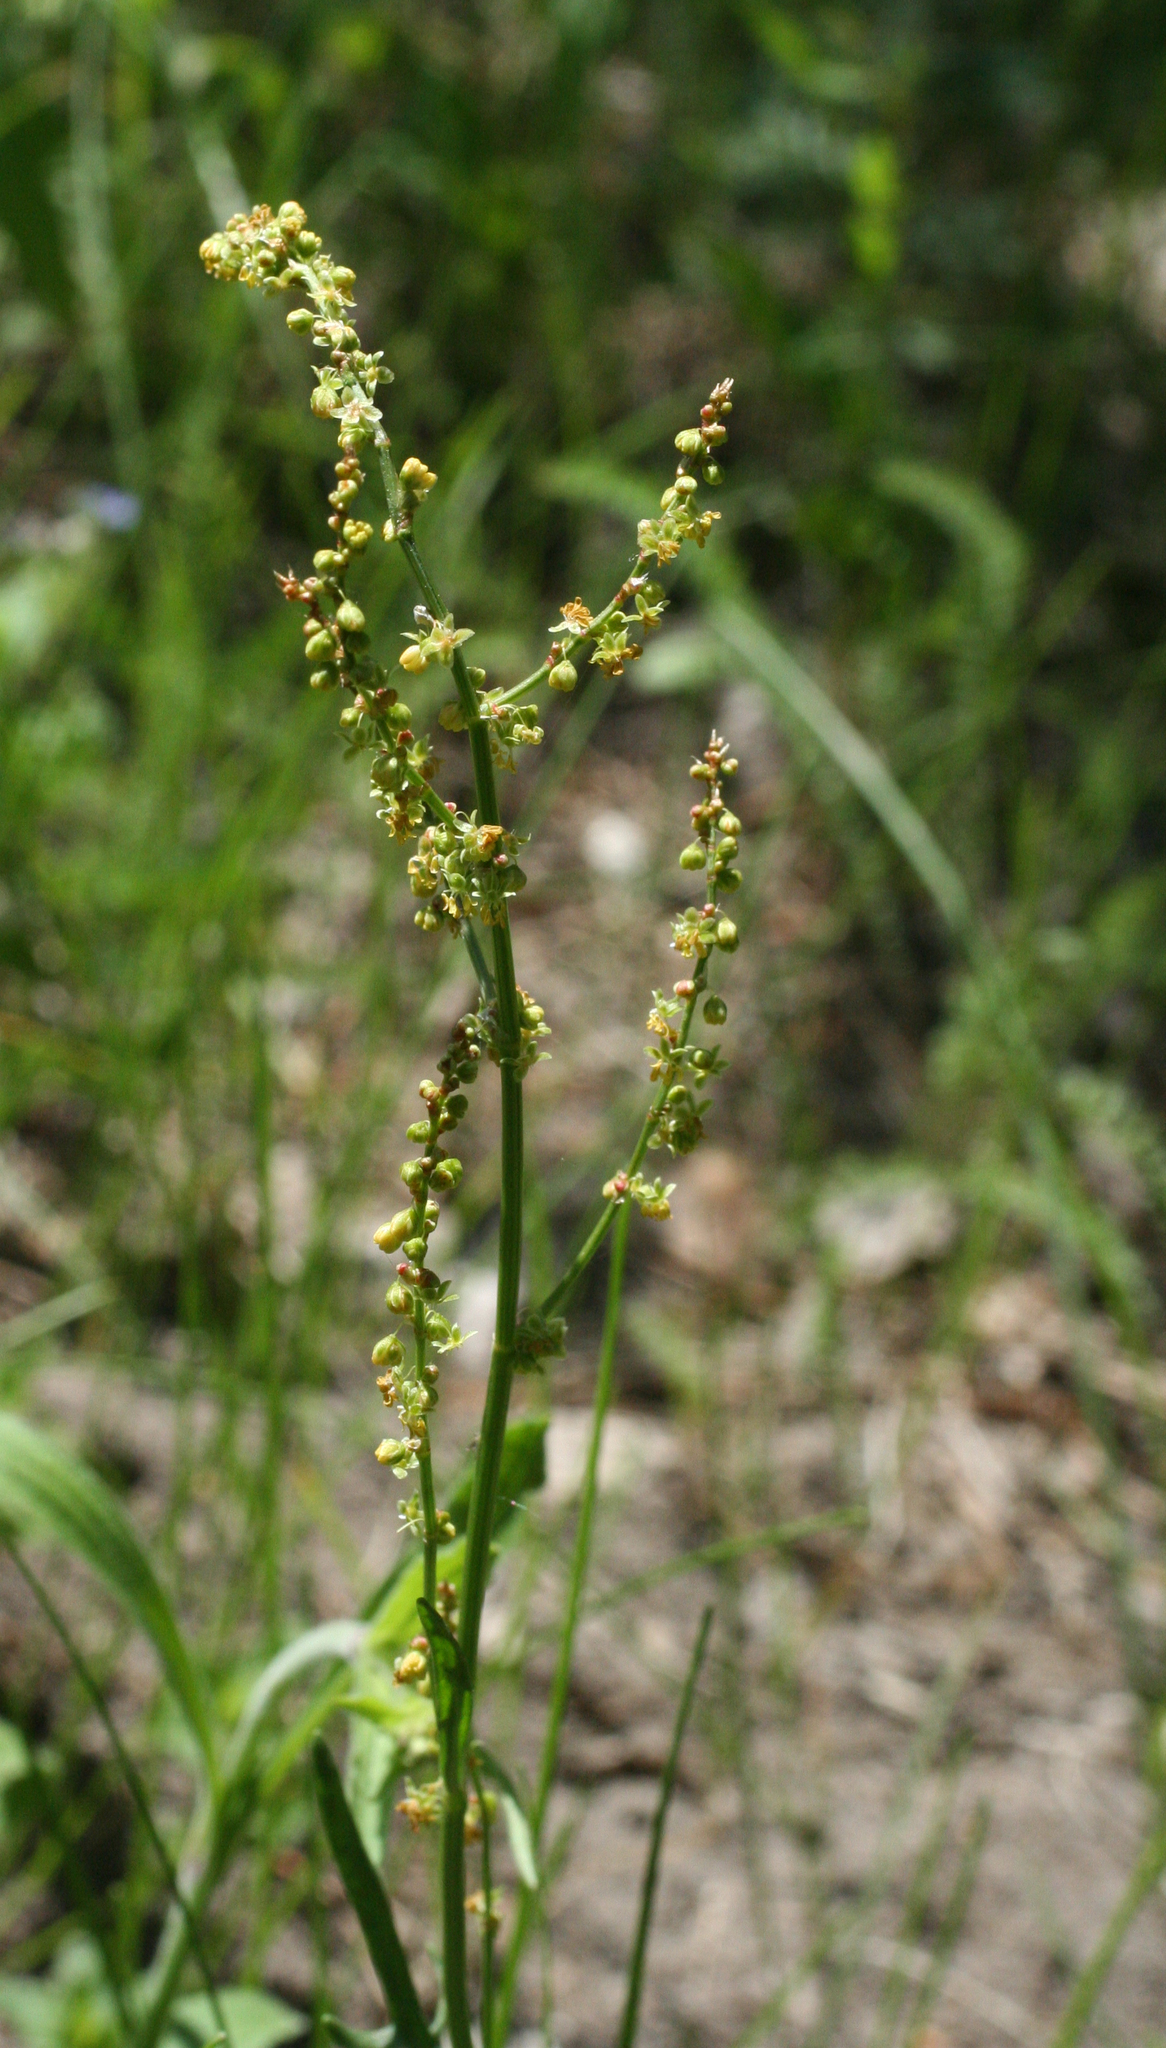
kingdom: Plantae
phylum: Tracheophyta
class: Magnoliopsida
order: Caryophyllales
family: Polygonaceae
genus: Rumex
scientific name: Rumex acetosella
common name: Common sheep sorrel
